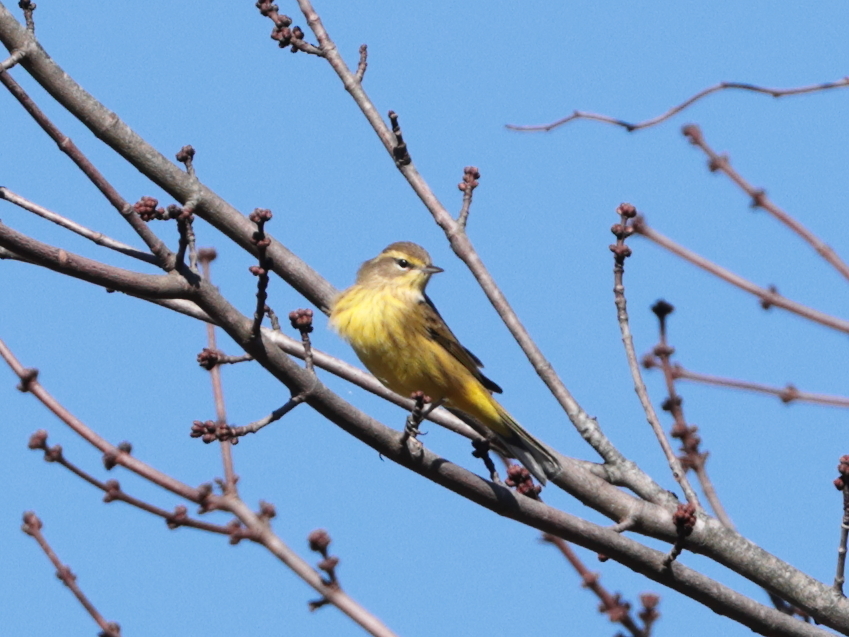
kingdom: Animalia
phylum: Chordata
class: Aves
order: Passeriformes
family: Parulidae
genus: Setophaga
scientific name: Setophaga palmarum
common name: Palm warbler
